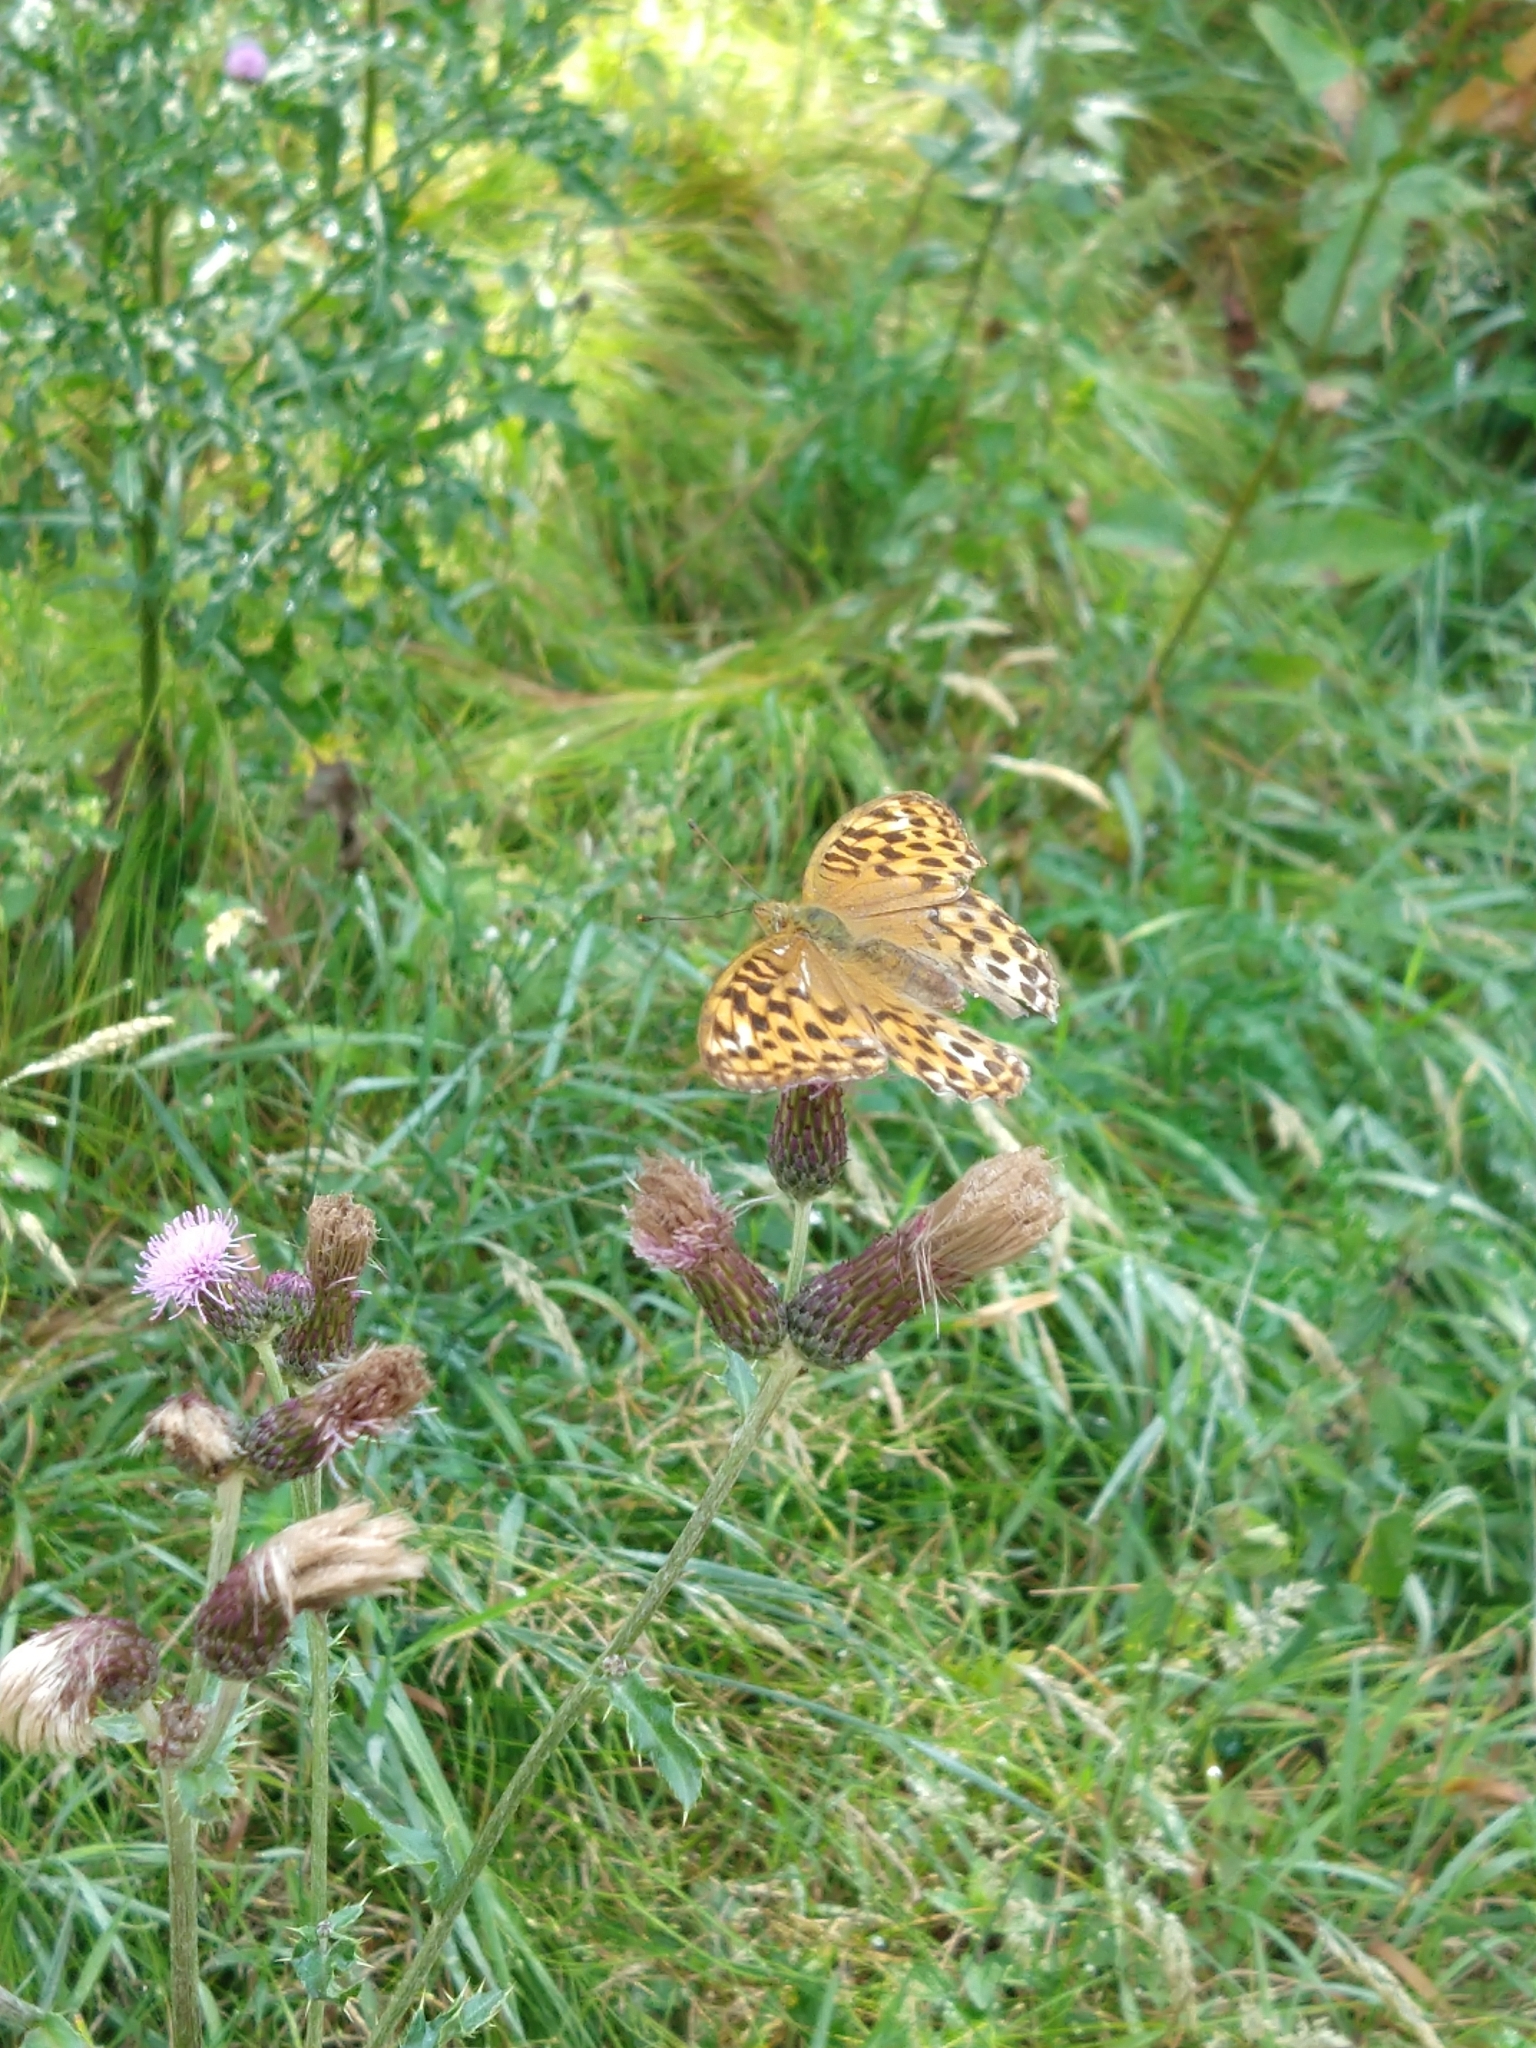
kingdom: Animalia
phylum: Arthropoda
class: Insecta
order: Lepidoptera
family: Nymphalidae
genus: Argynnis
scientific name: Argynnis paphia
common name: Silver-washed fritillary
